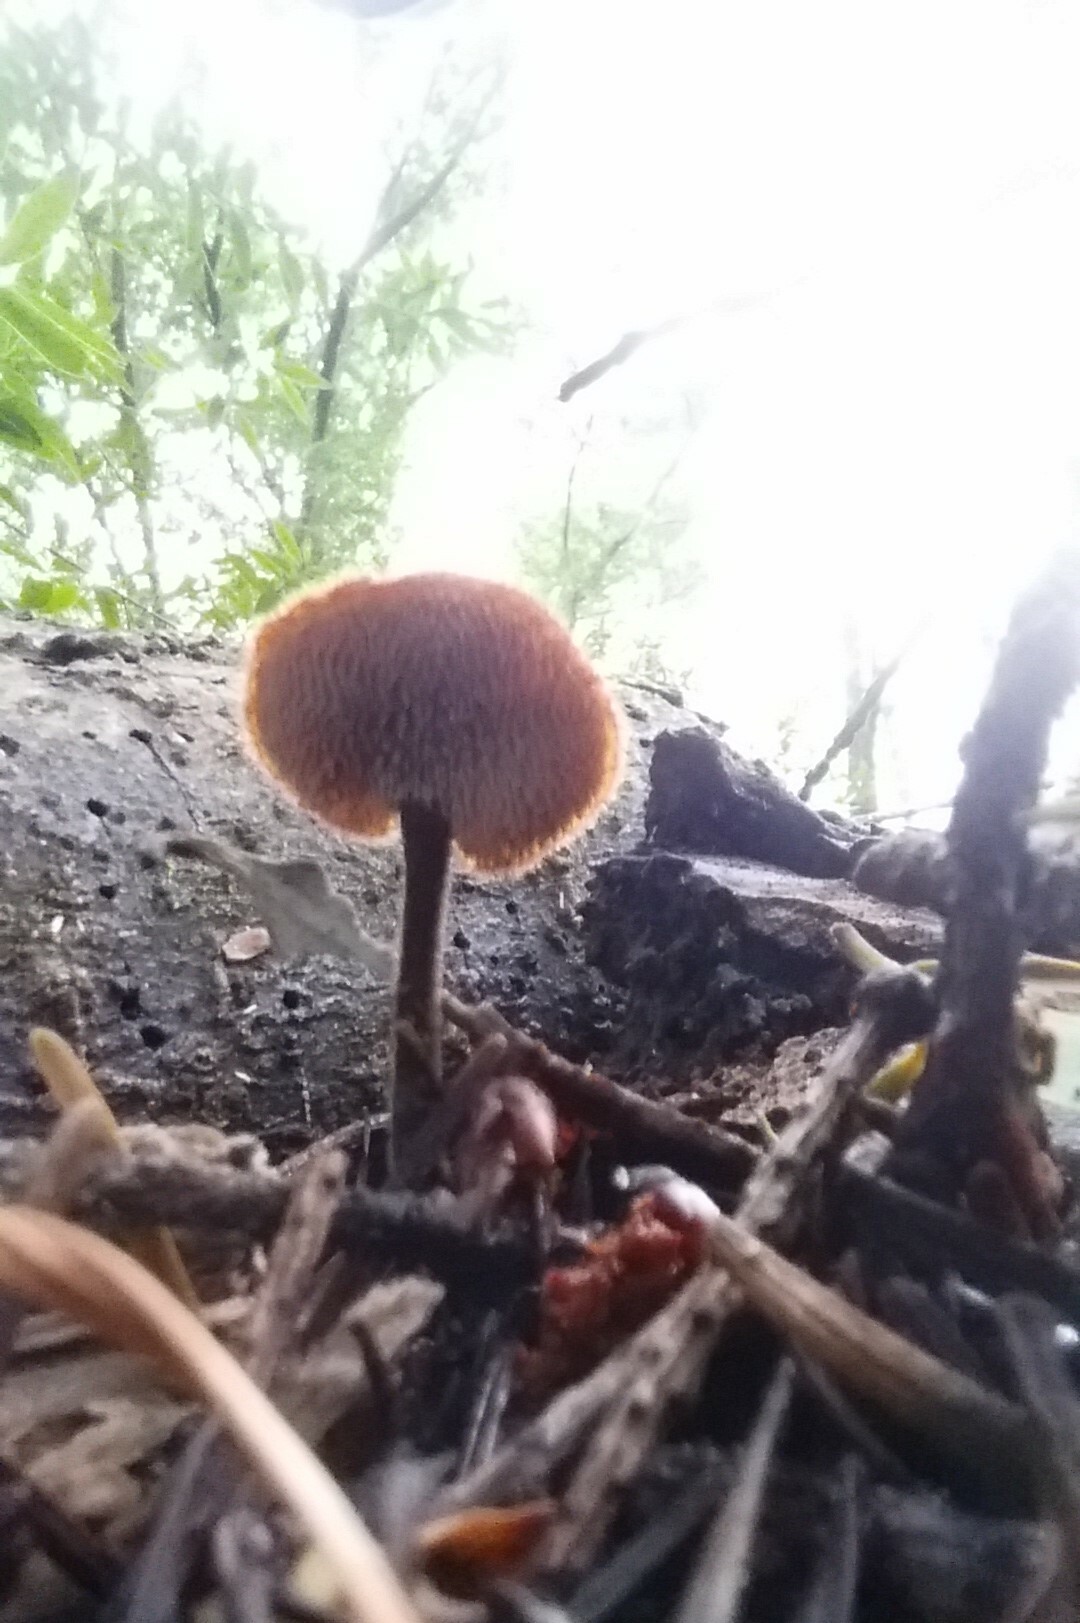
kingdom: Fungi
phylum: Basidiomycota
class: Agaricomycetes
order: Russulales
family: Auriscalpiaceae
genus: Auriscalpium
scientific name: Auriscalpium vulgare
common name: Earpick fungus
